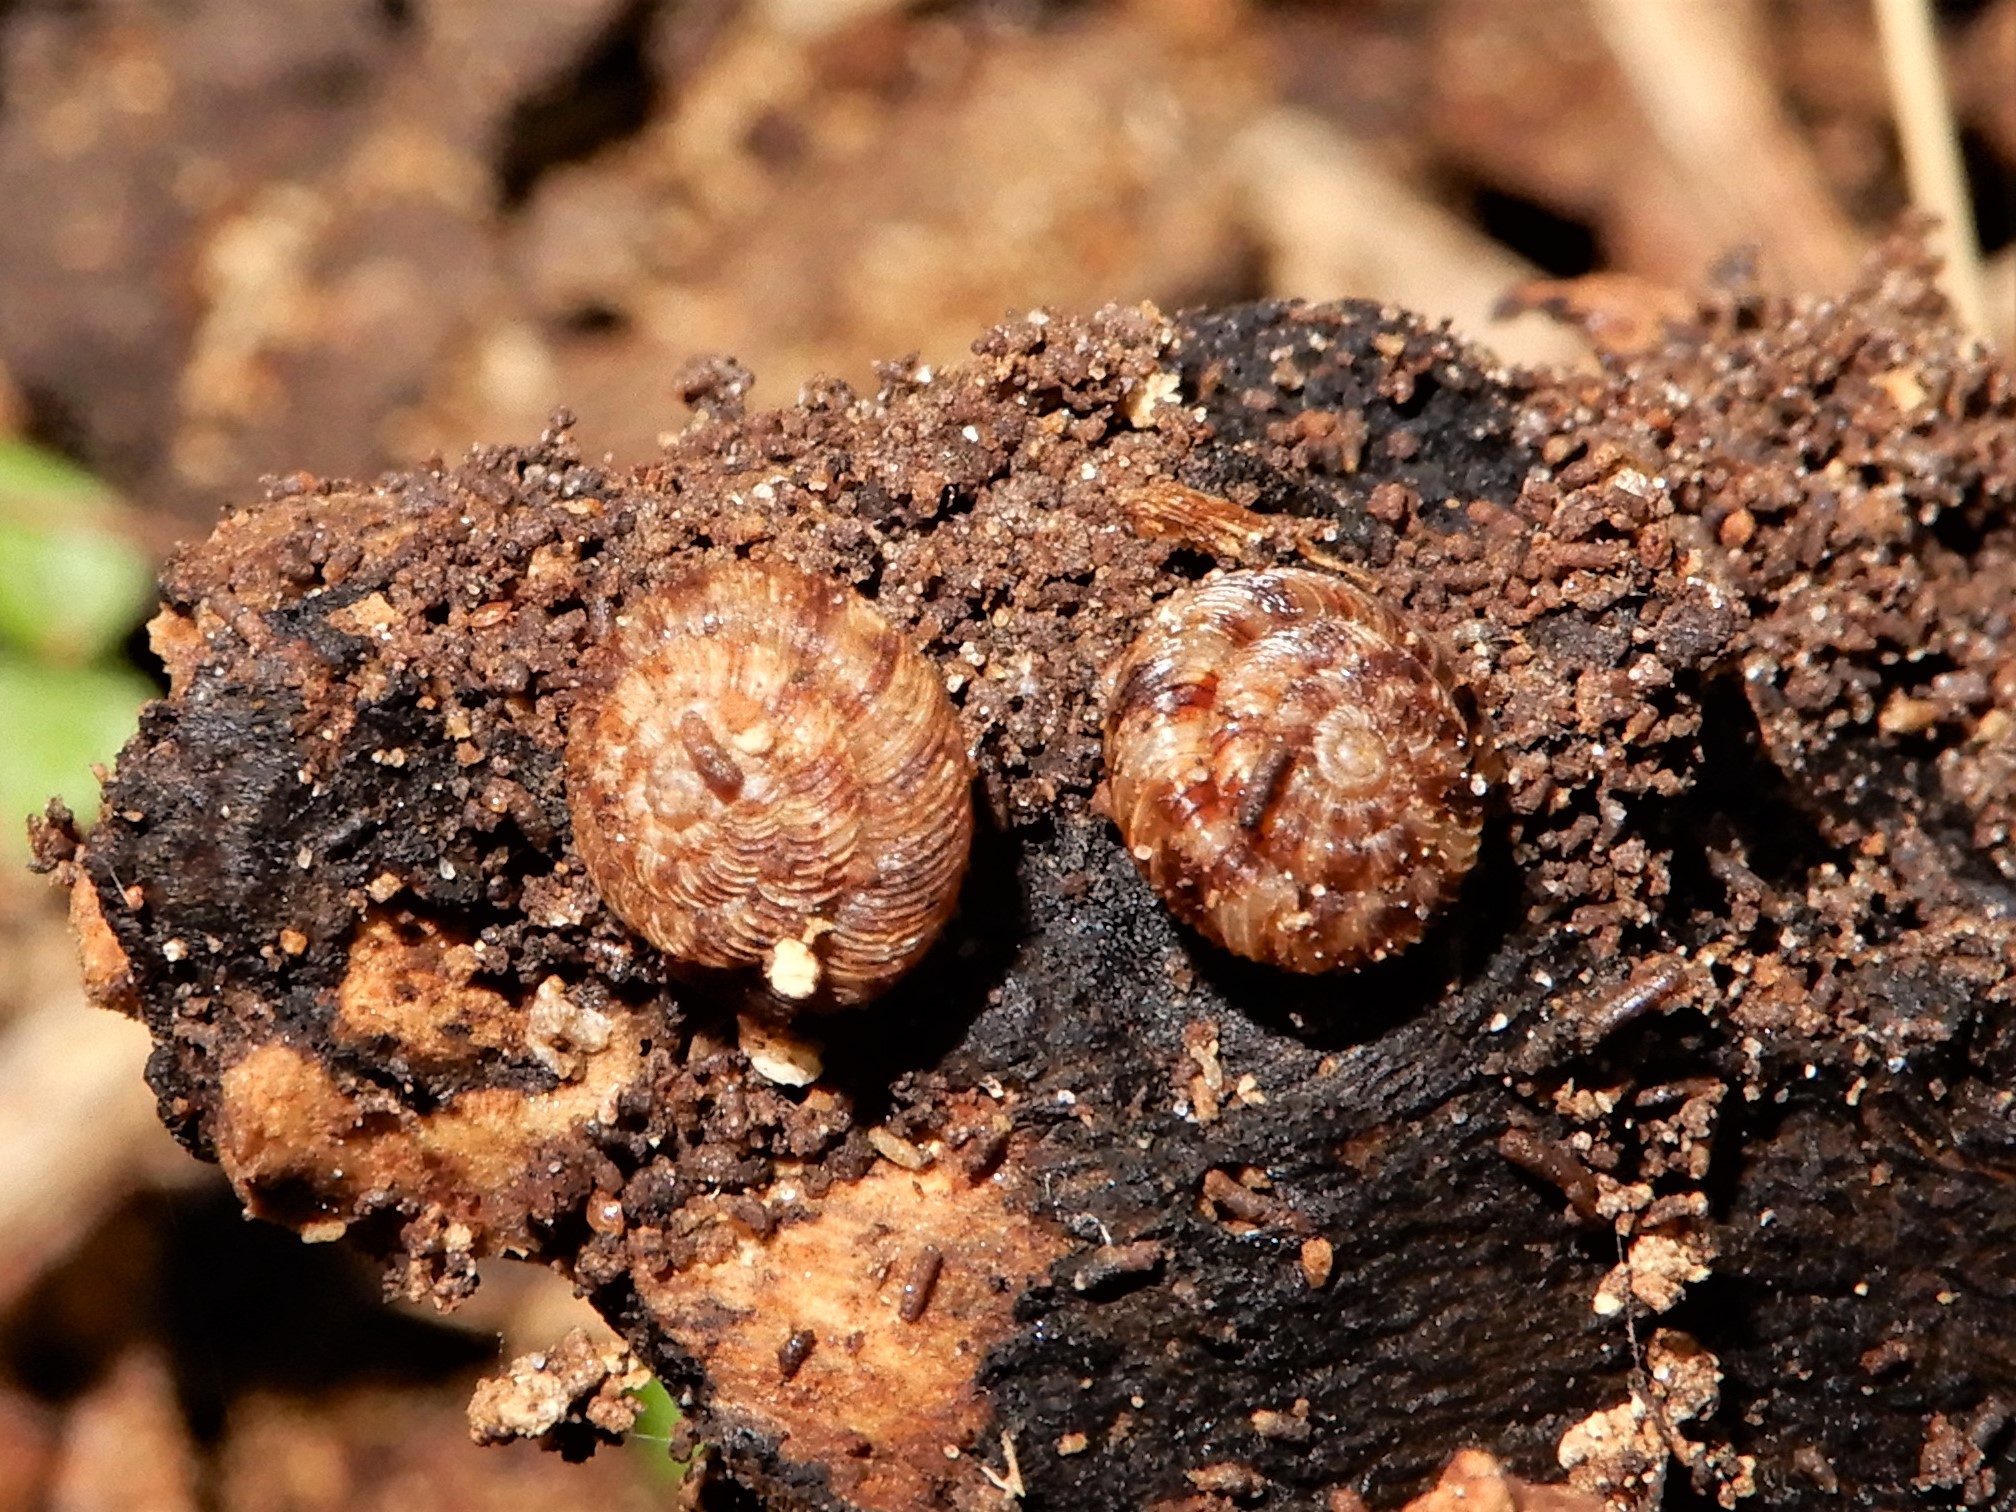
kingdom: Animalia
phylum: Mollusca
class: Gastropoda
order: Stylommatophora
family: Charopidae
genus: Phacussa
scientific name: Phacussa lucetta
